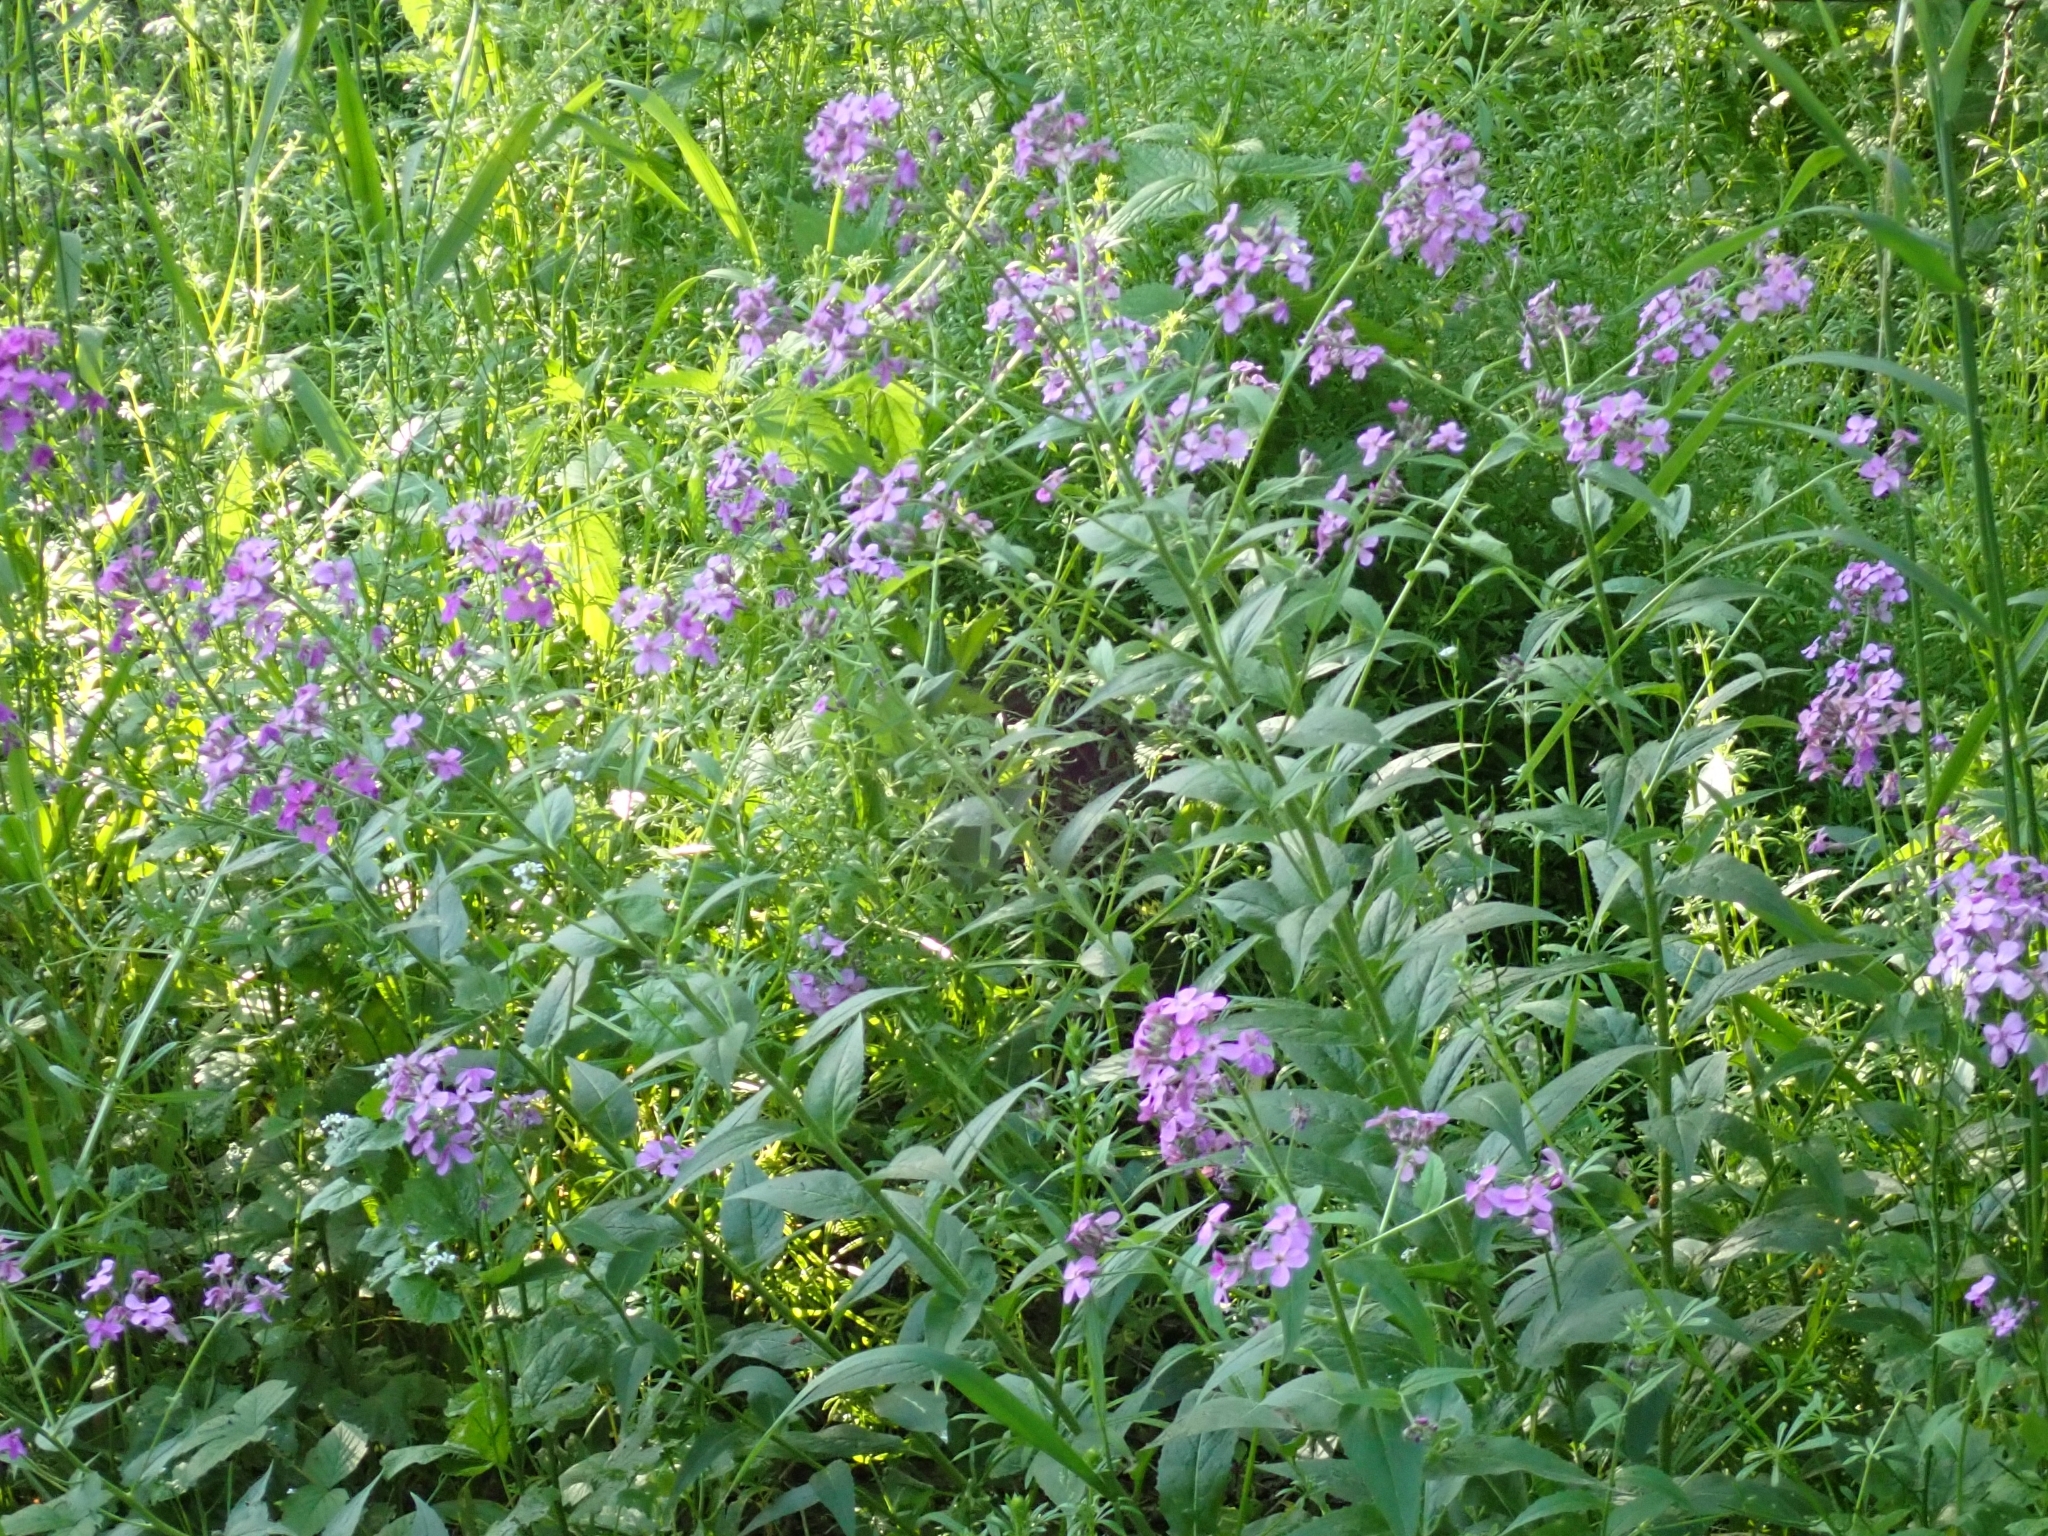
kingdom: Plantae
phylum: Tracheophyta
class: Magnoliopsida
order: Brassicales
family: Brassicaceae
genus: Hesperis
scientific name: Hesperis matronalis
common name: Dame's-violet
